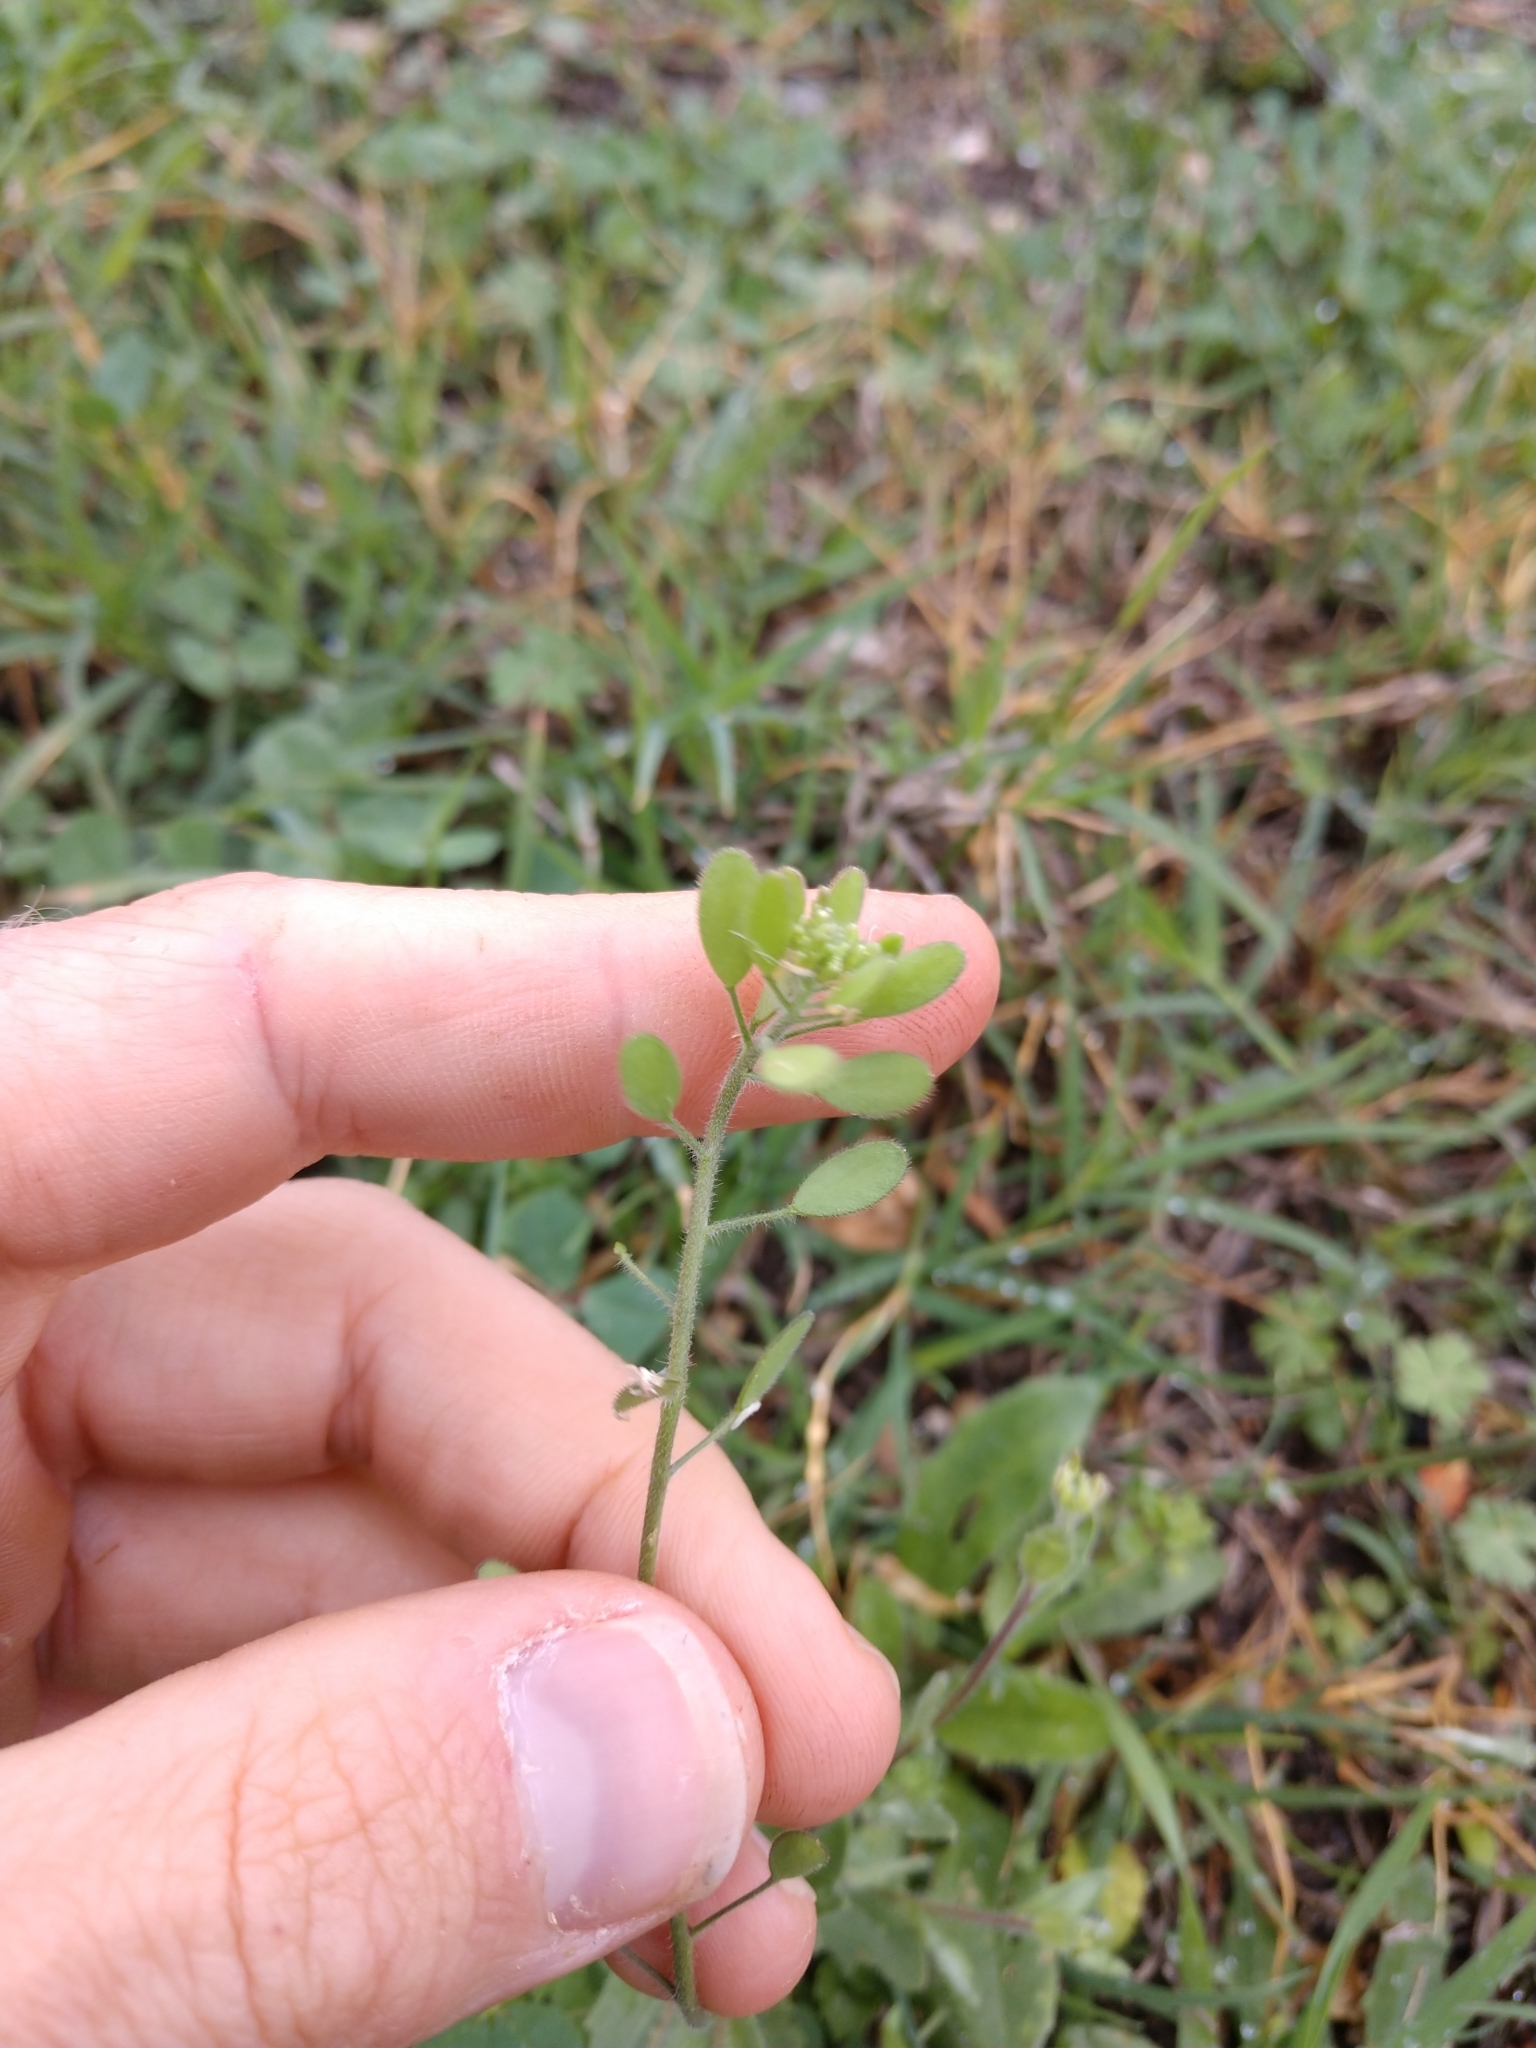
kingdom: Plantae
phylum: Tracheophyta
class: Magnoliopsida
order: Brassicales
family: Brassicaceae
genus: Tomostima
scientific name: Tomostima platycarpa
